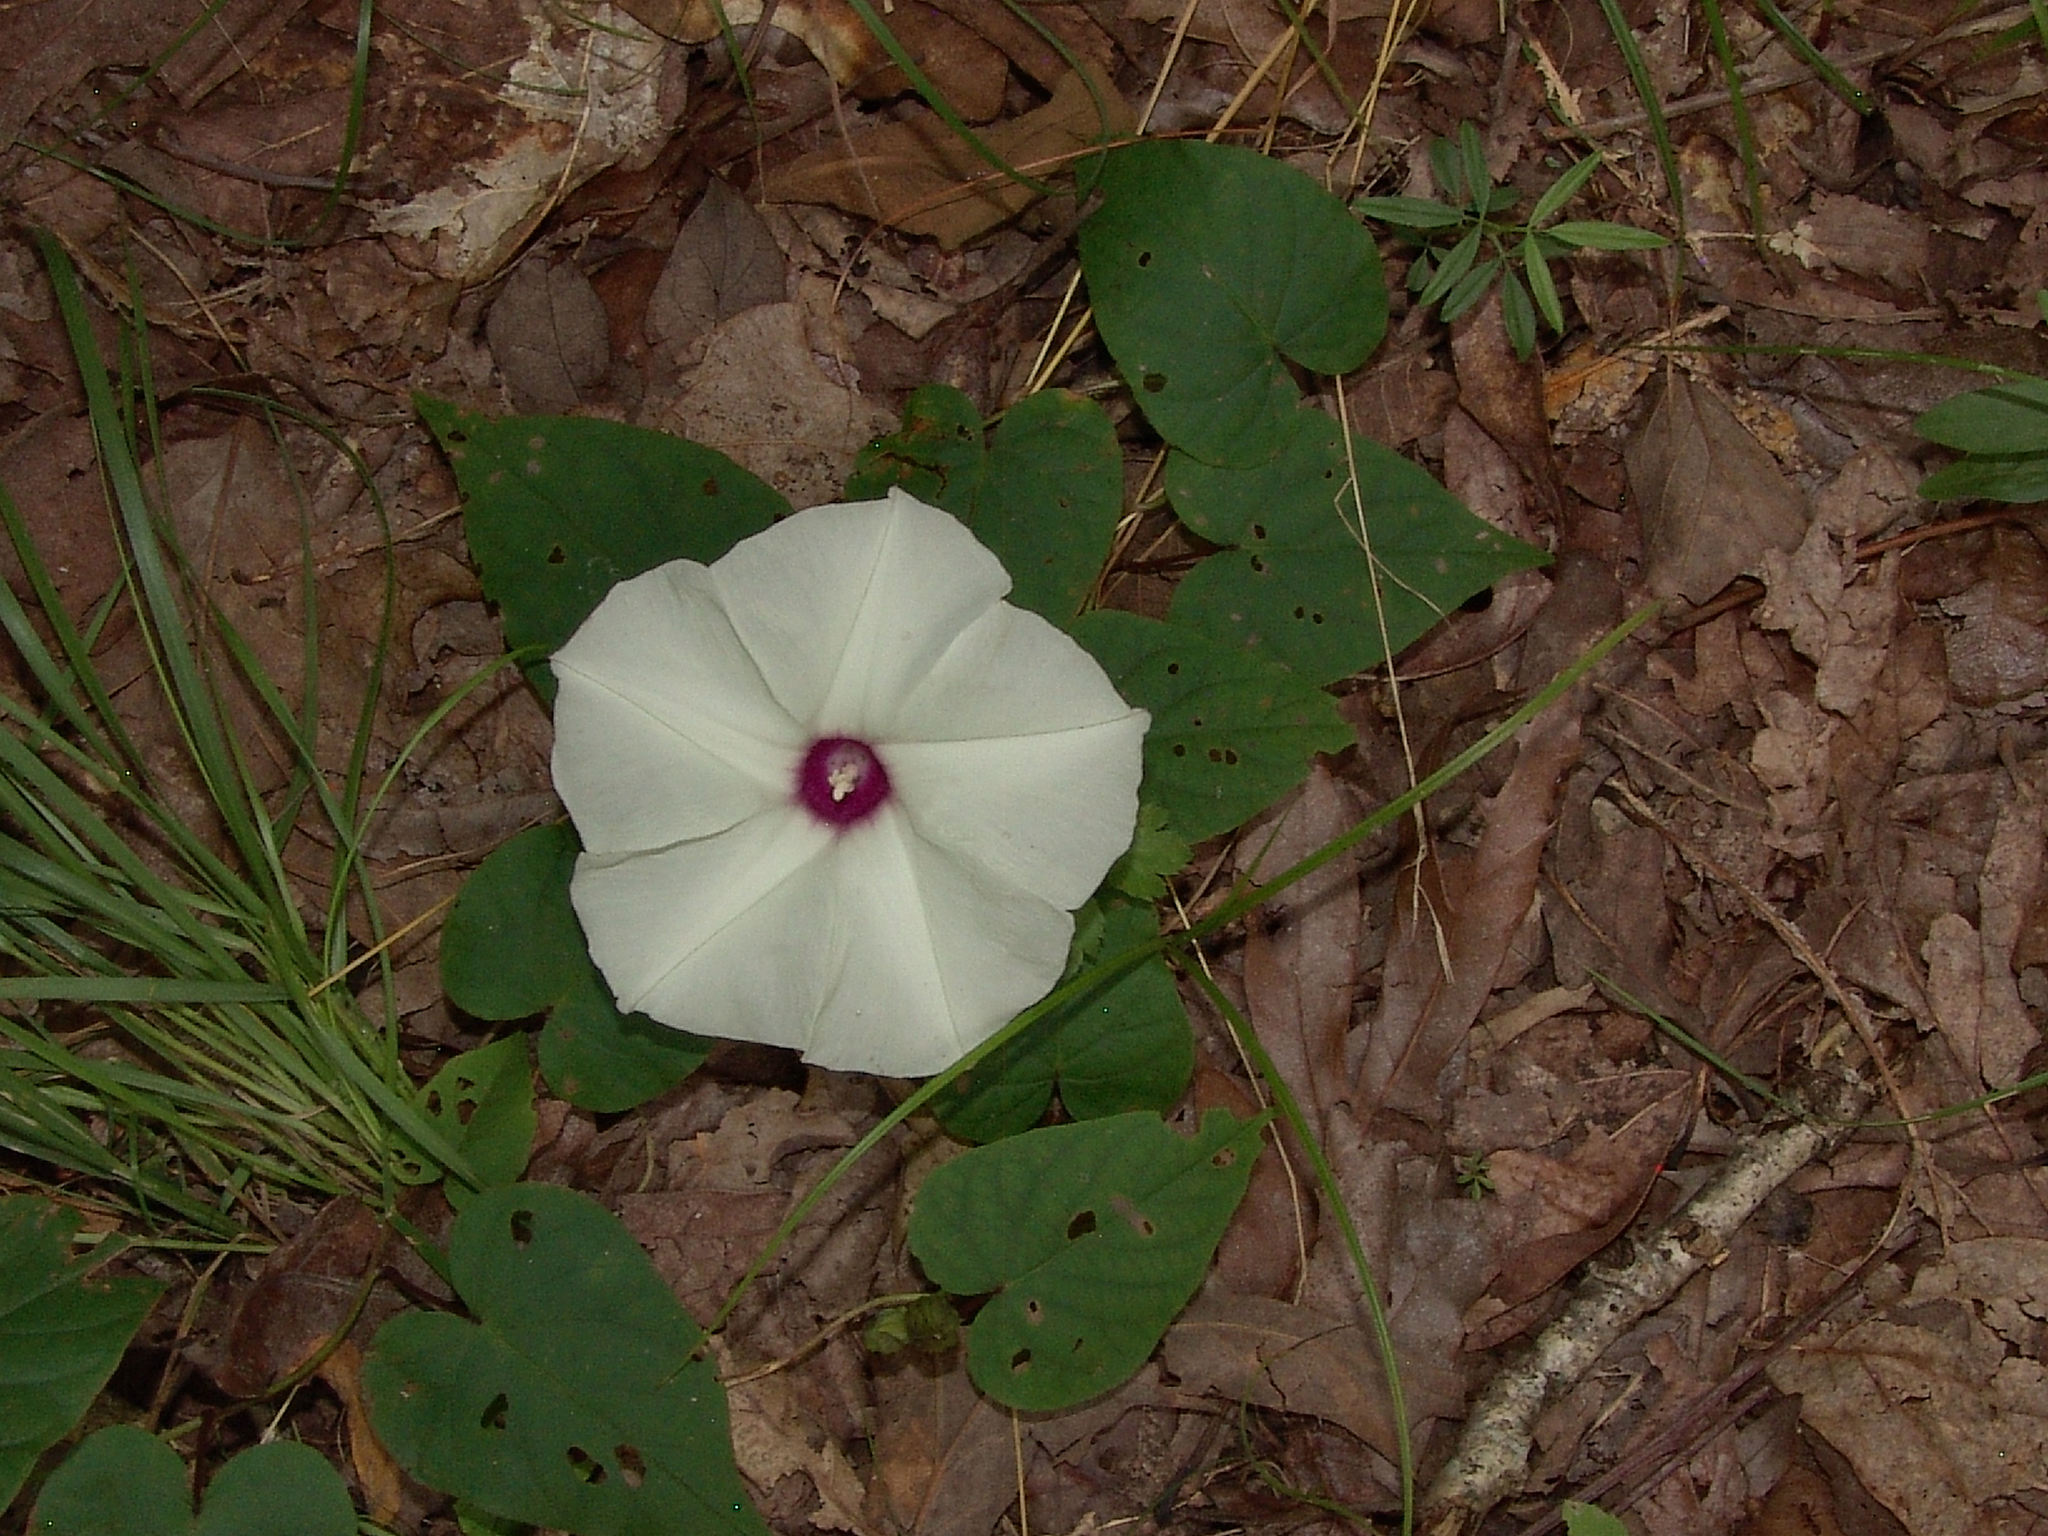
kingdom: Plantae
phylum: Tracheophyta
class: Magnoliopsida
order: Solanales
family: Convolvulaceae
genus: Ipomoea
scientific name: Ipomoea pandurata
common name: Man-of-the-earth
